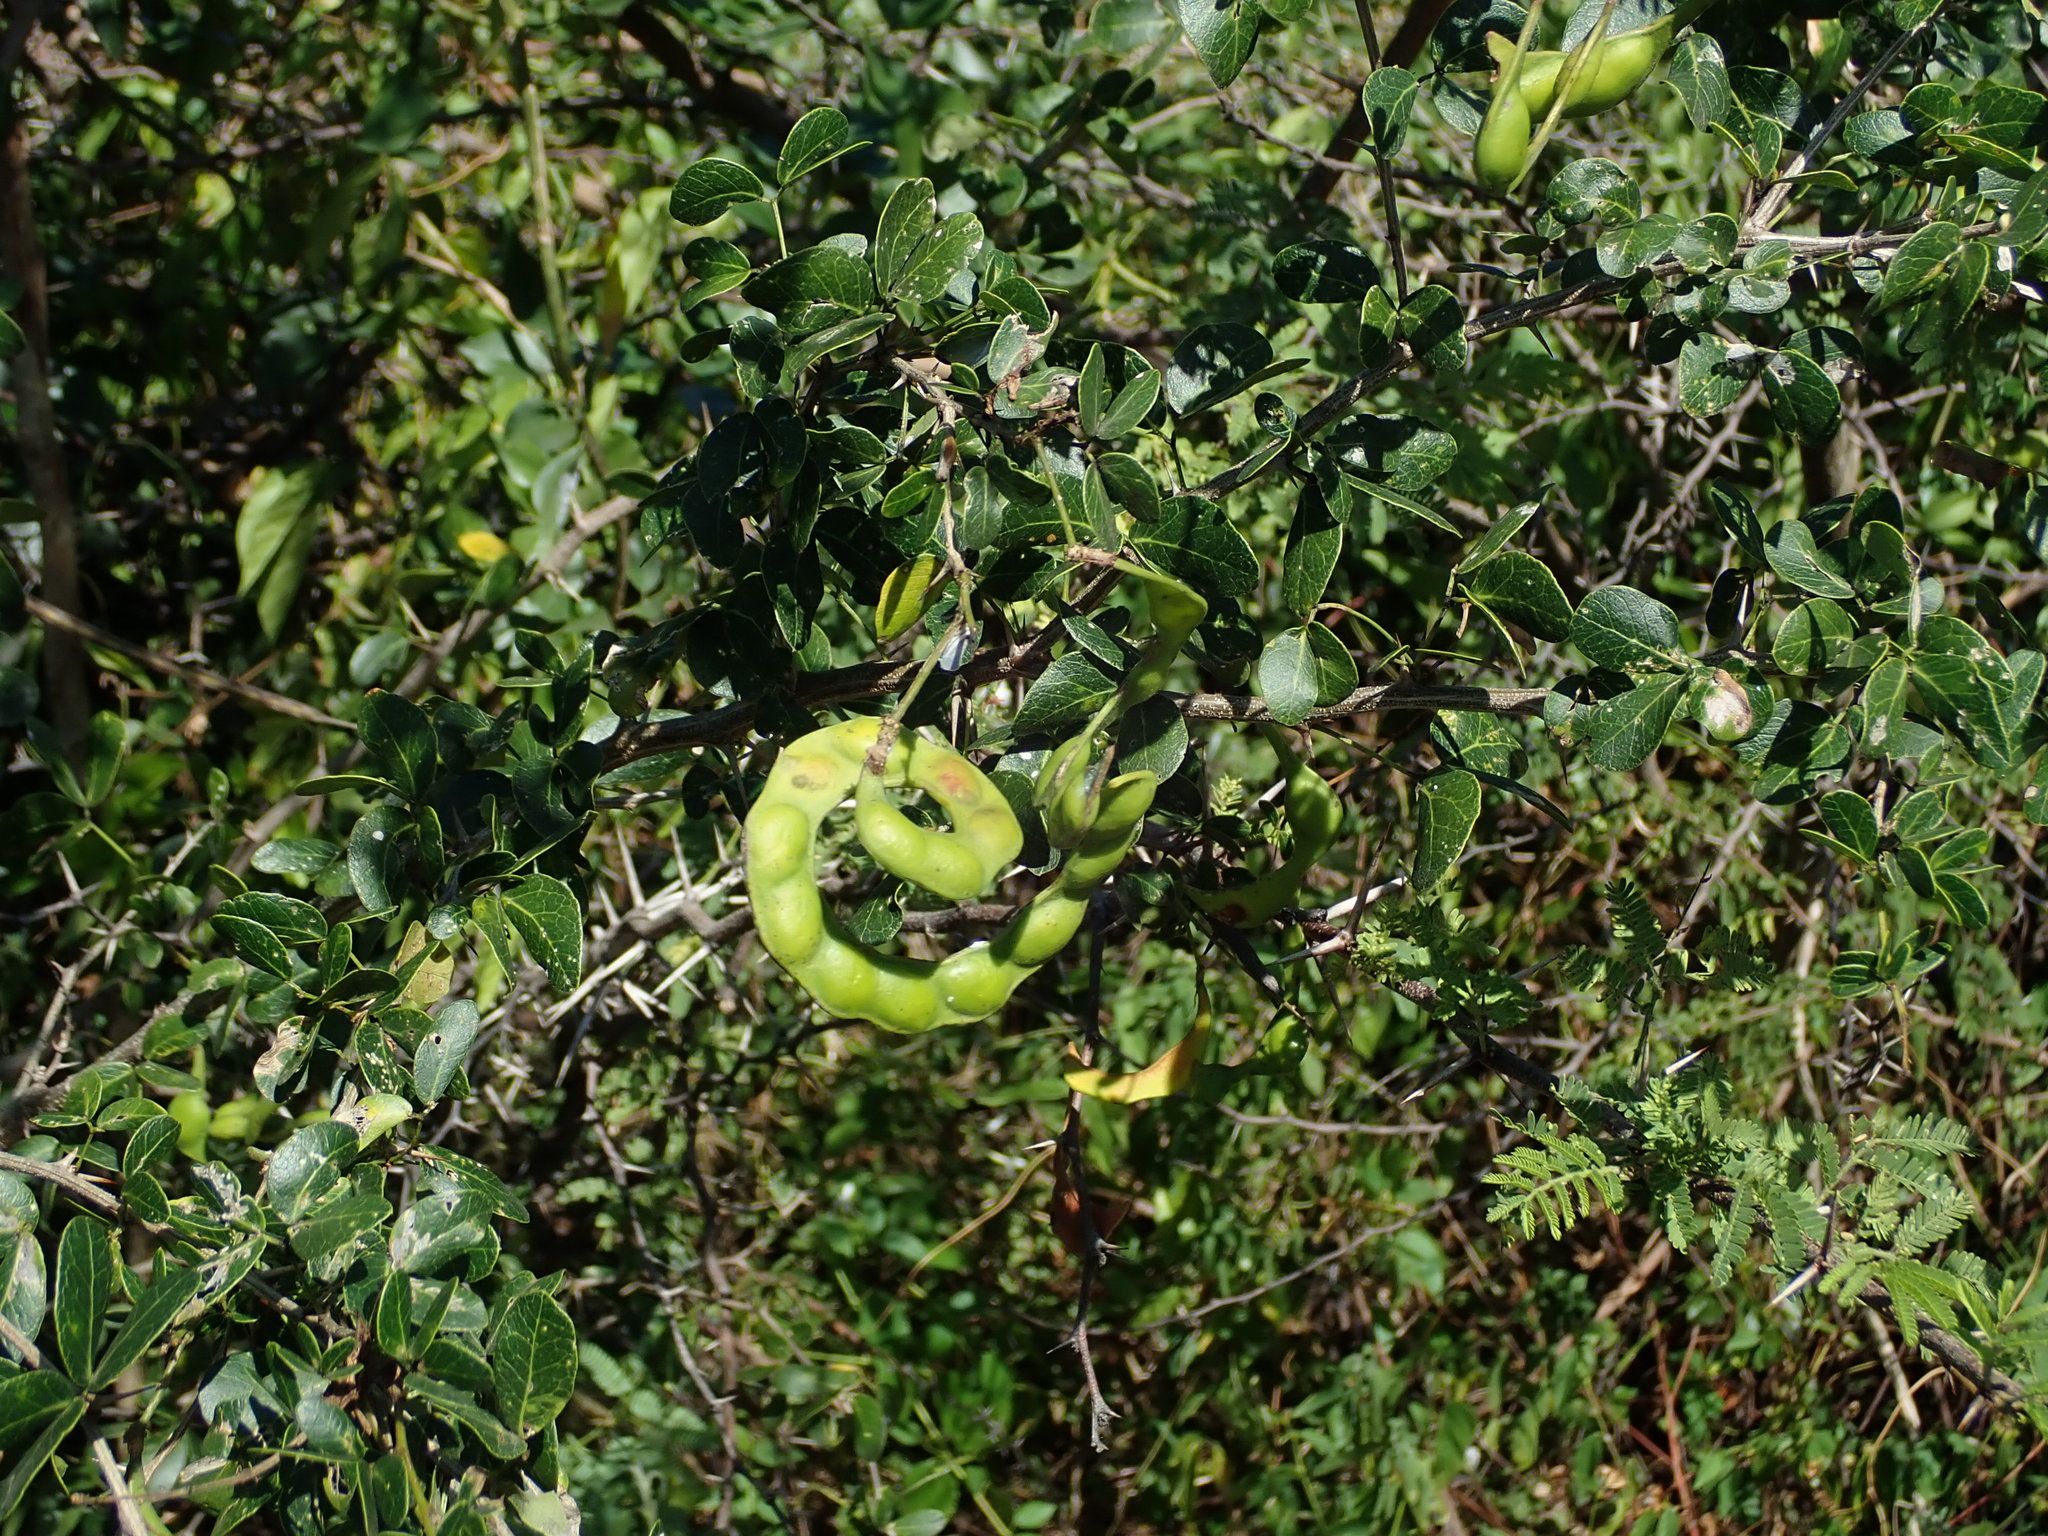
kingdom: Plantae
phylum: Tracheophyta
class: Magnoliopsida
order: Fabales
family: Fabaceae
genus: Pithecellobium
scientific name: Pithecellobium unguis-cati
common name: Cat's-claw
